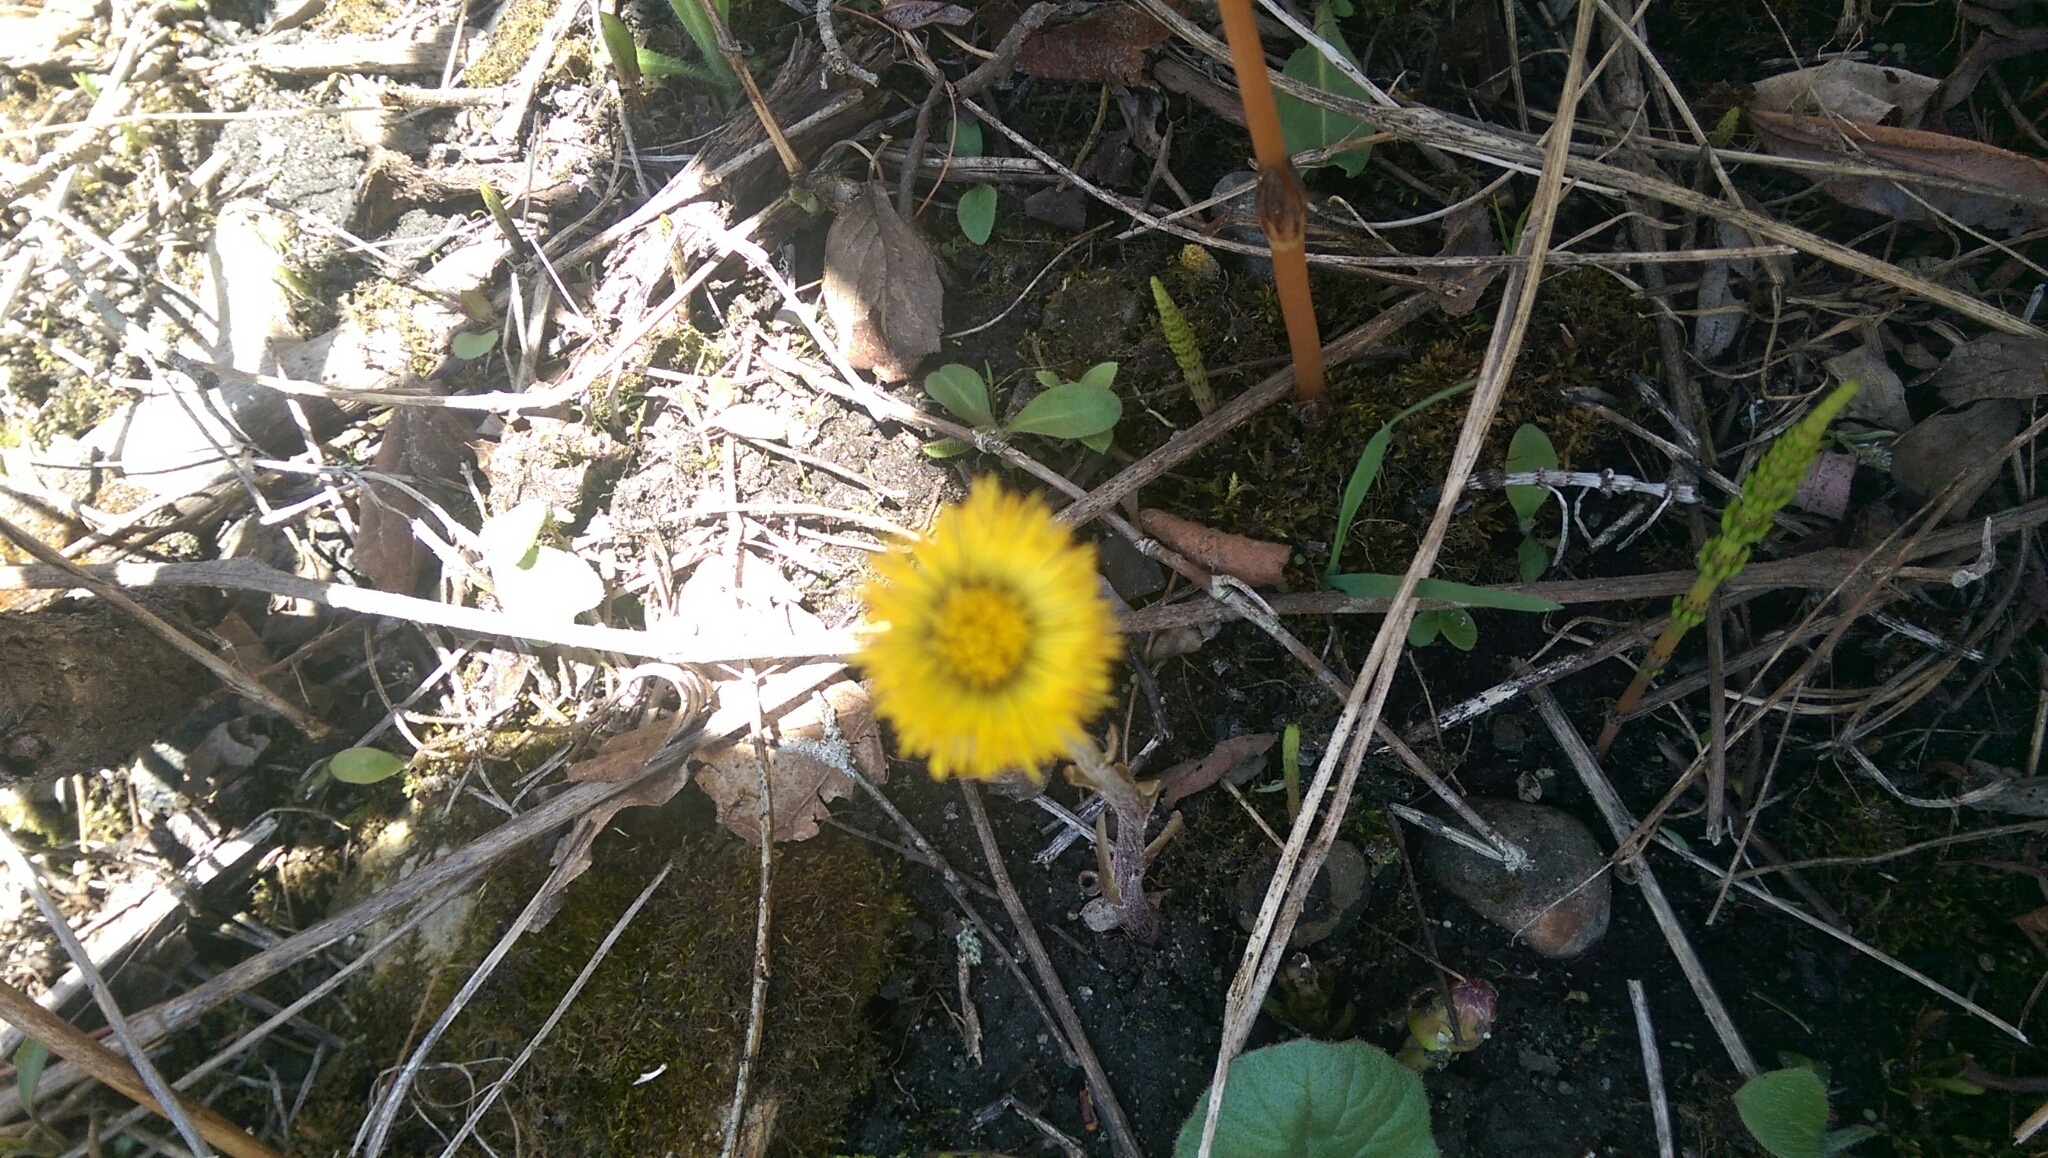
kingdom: Plantae
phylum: Tracheophyta
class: Magnoliopsida
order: Asterales
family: Asteraceae
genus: Tussilago
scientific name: Tussilago farfara
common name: Coltsfoot
